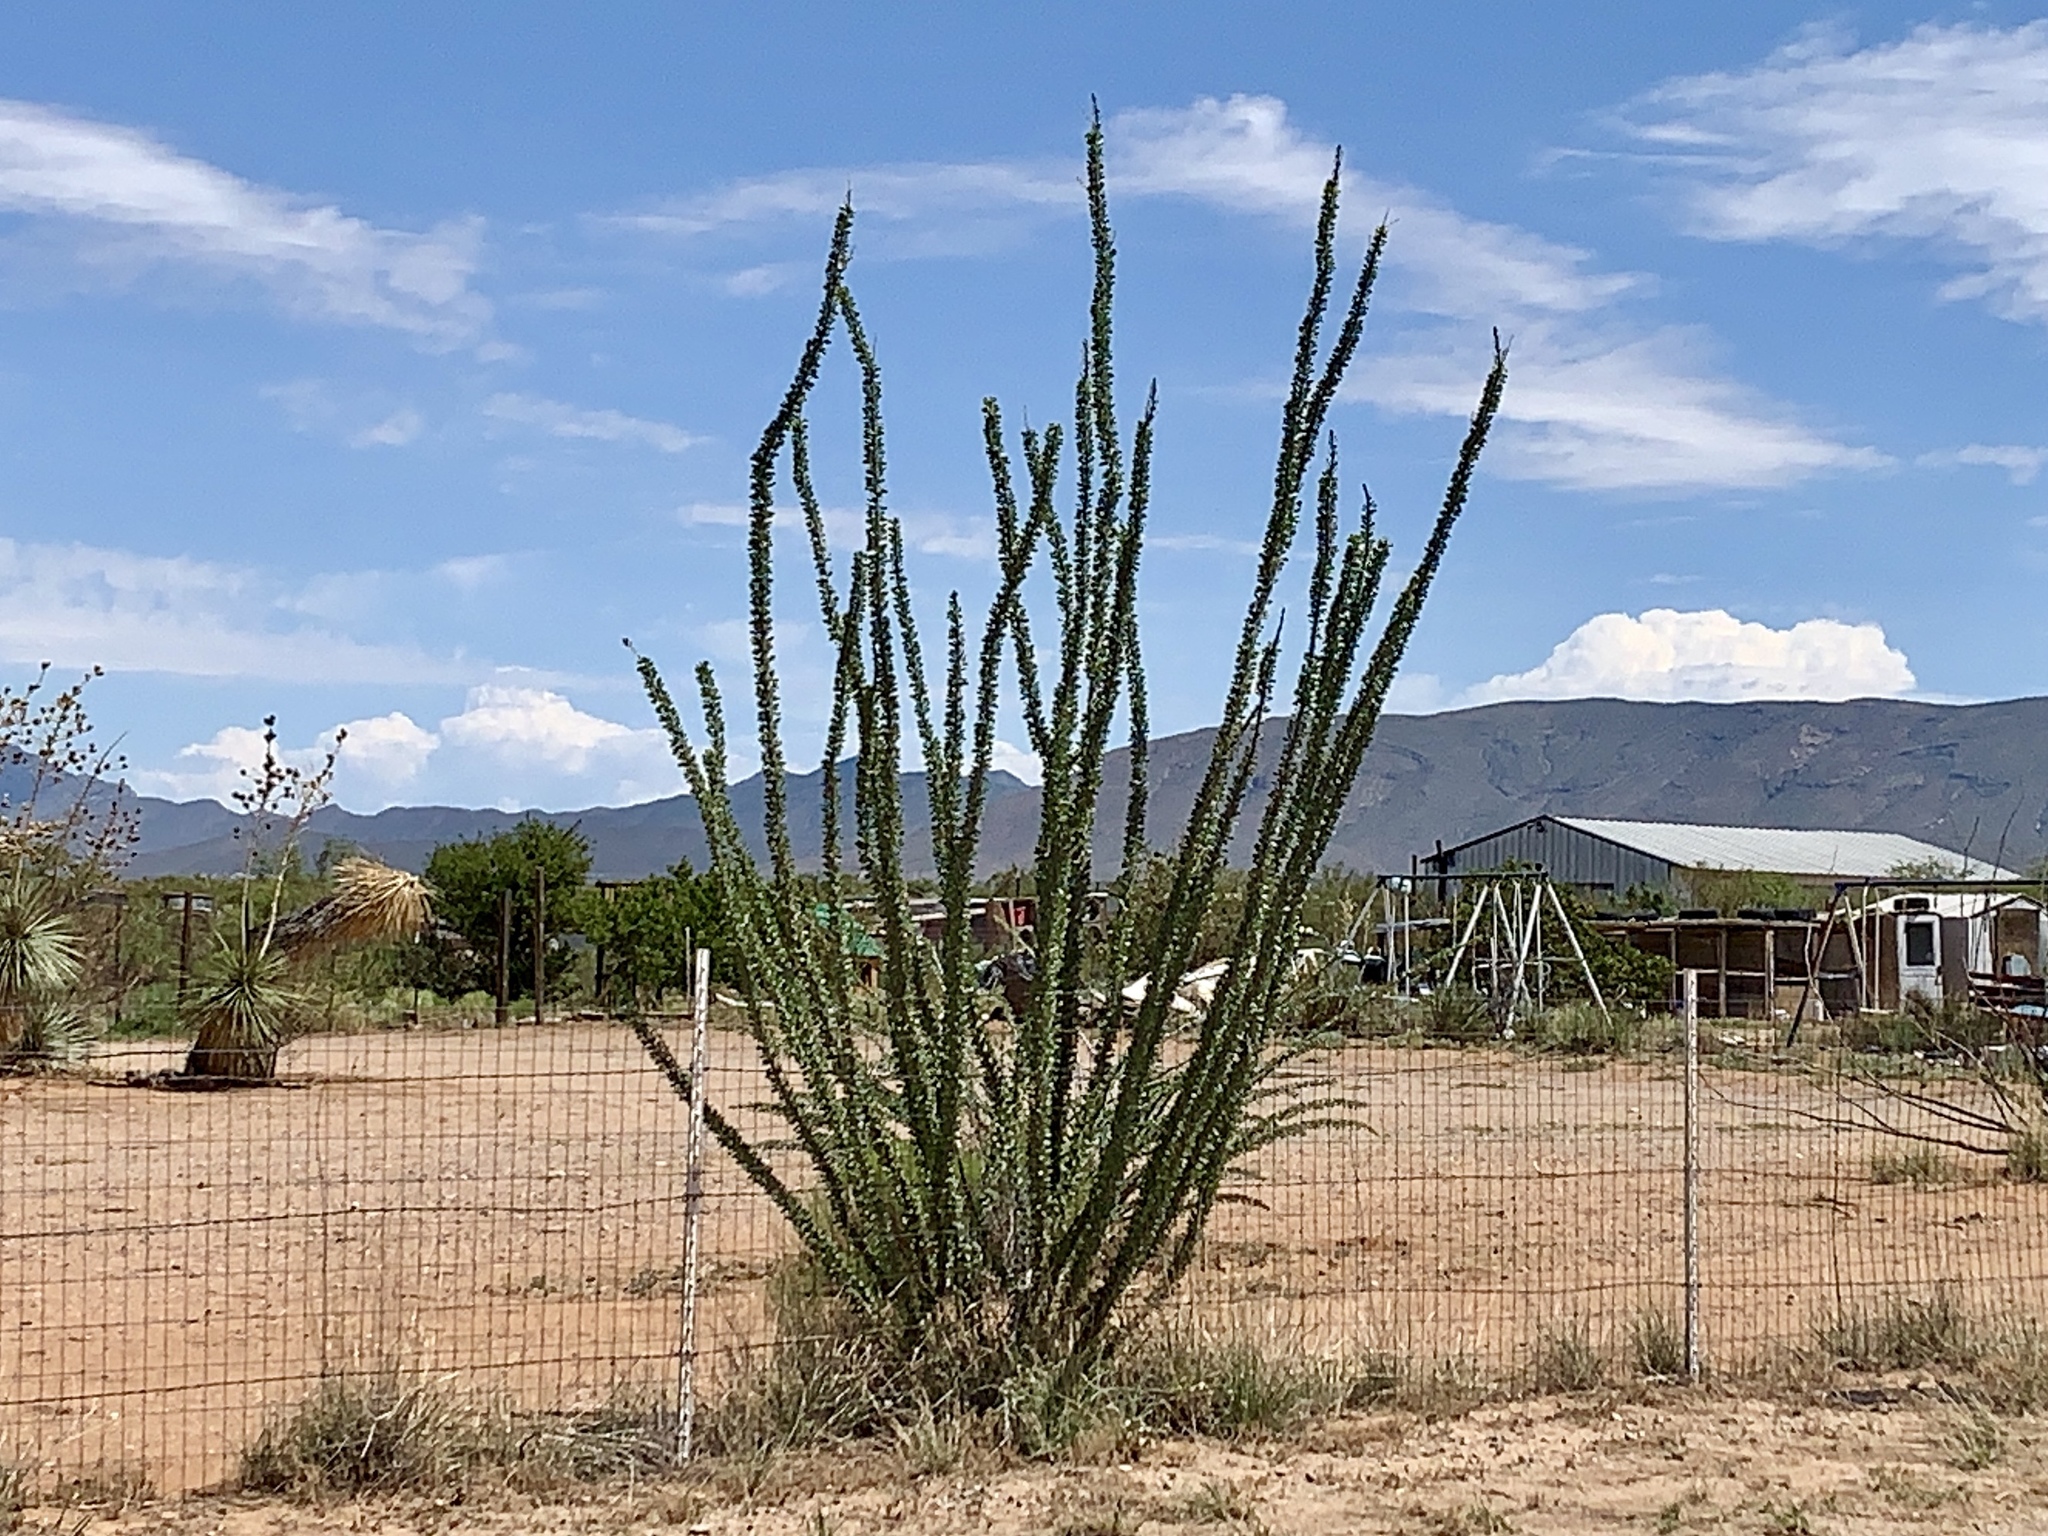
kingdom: Plantae
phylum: Tracheophyta
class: Magnoliopsida
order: Ericales
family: Fouquieriaceae
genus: Fouquieria
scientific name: Fouquieria splendens
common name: Vine-cactus
